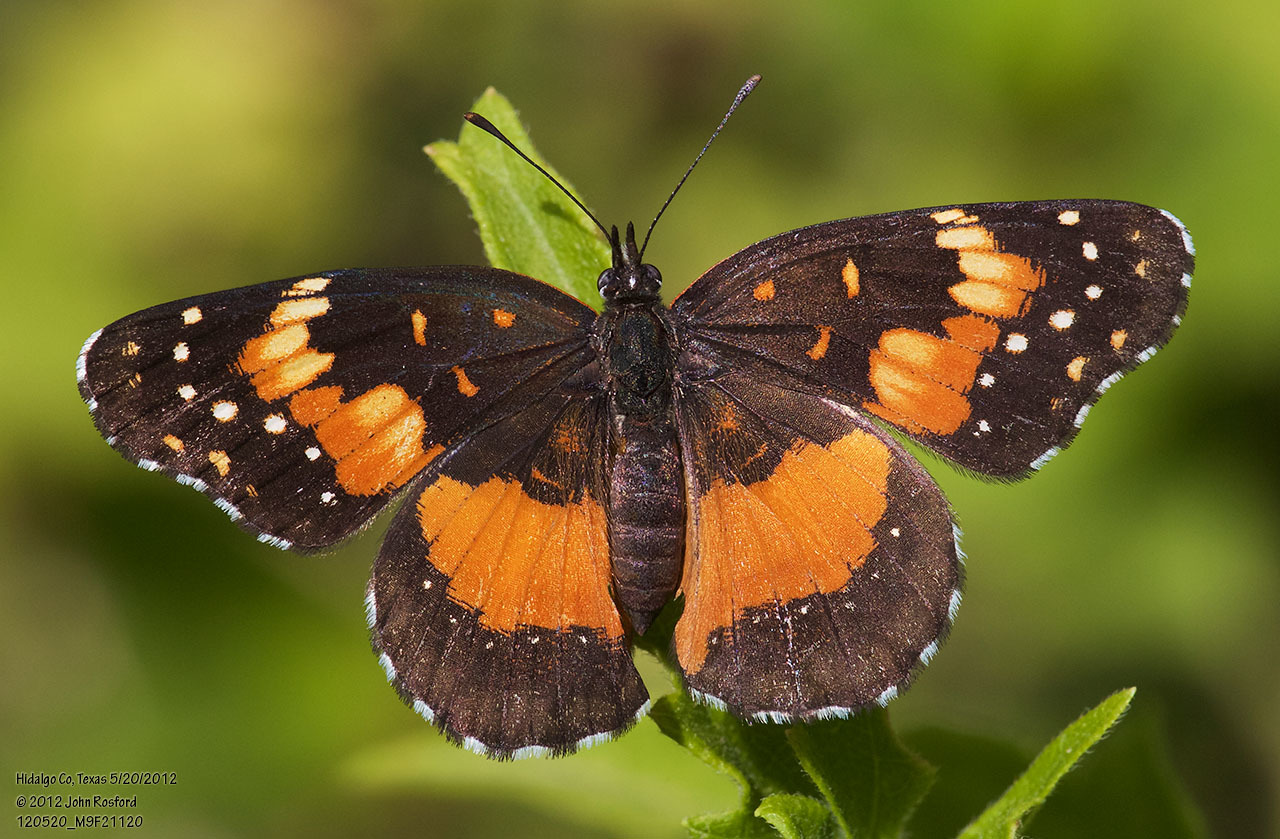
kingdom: Animalia
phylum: Arthropoda
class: Insecta
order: Lepidoptera
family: Nymphalidae
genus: Chlosyne
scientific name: Chlosyne lacinia
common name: Bordered patch
